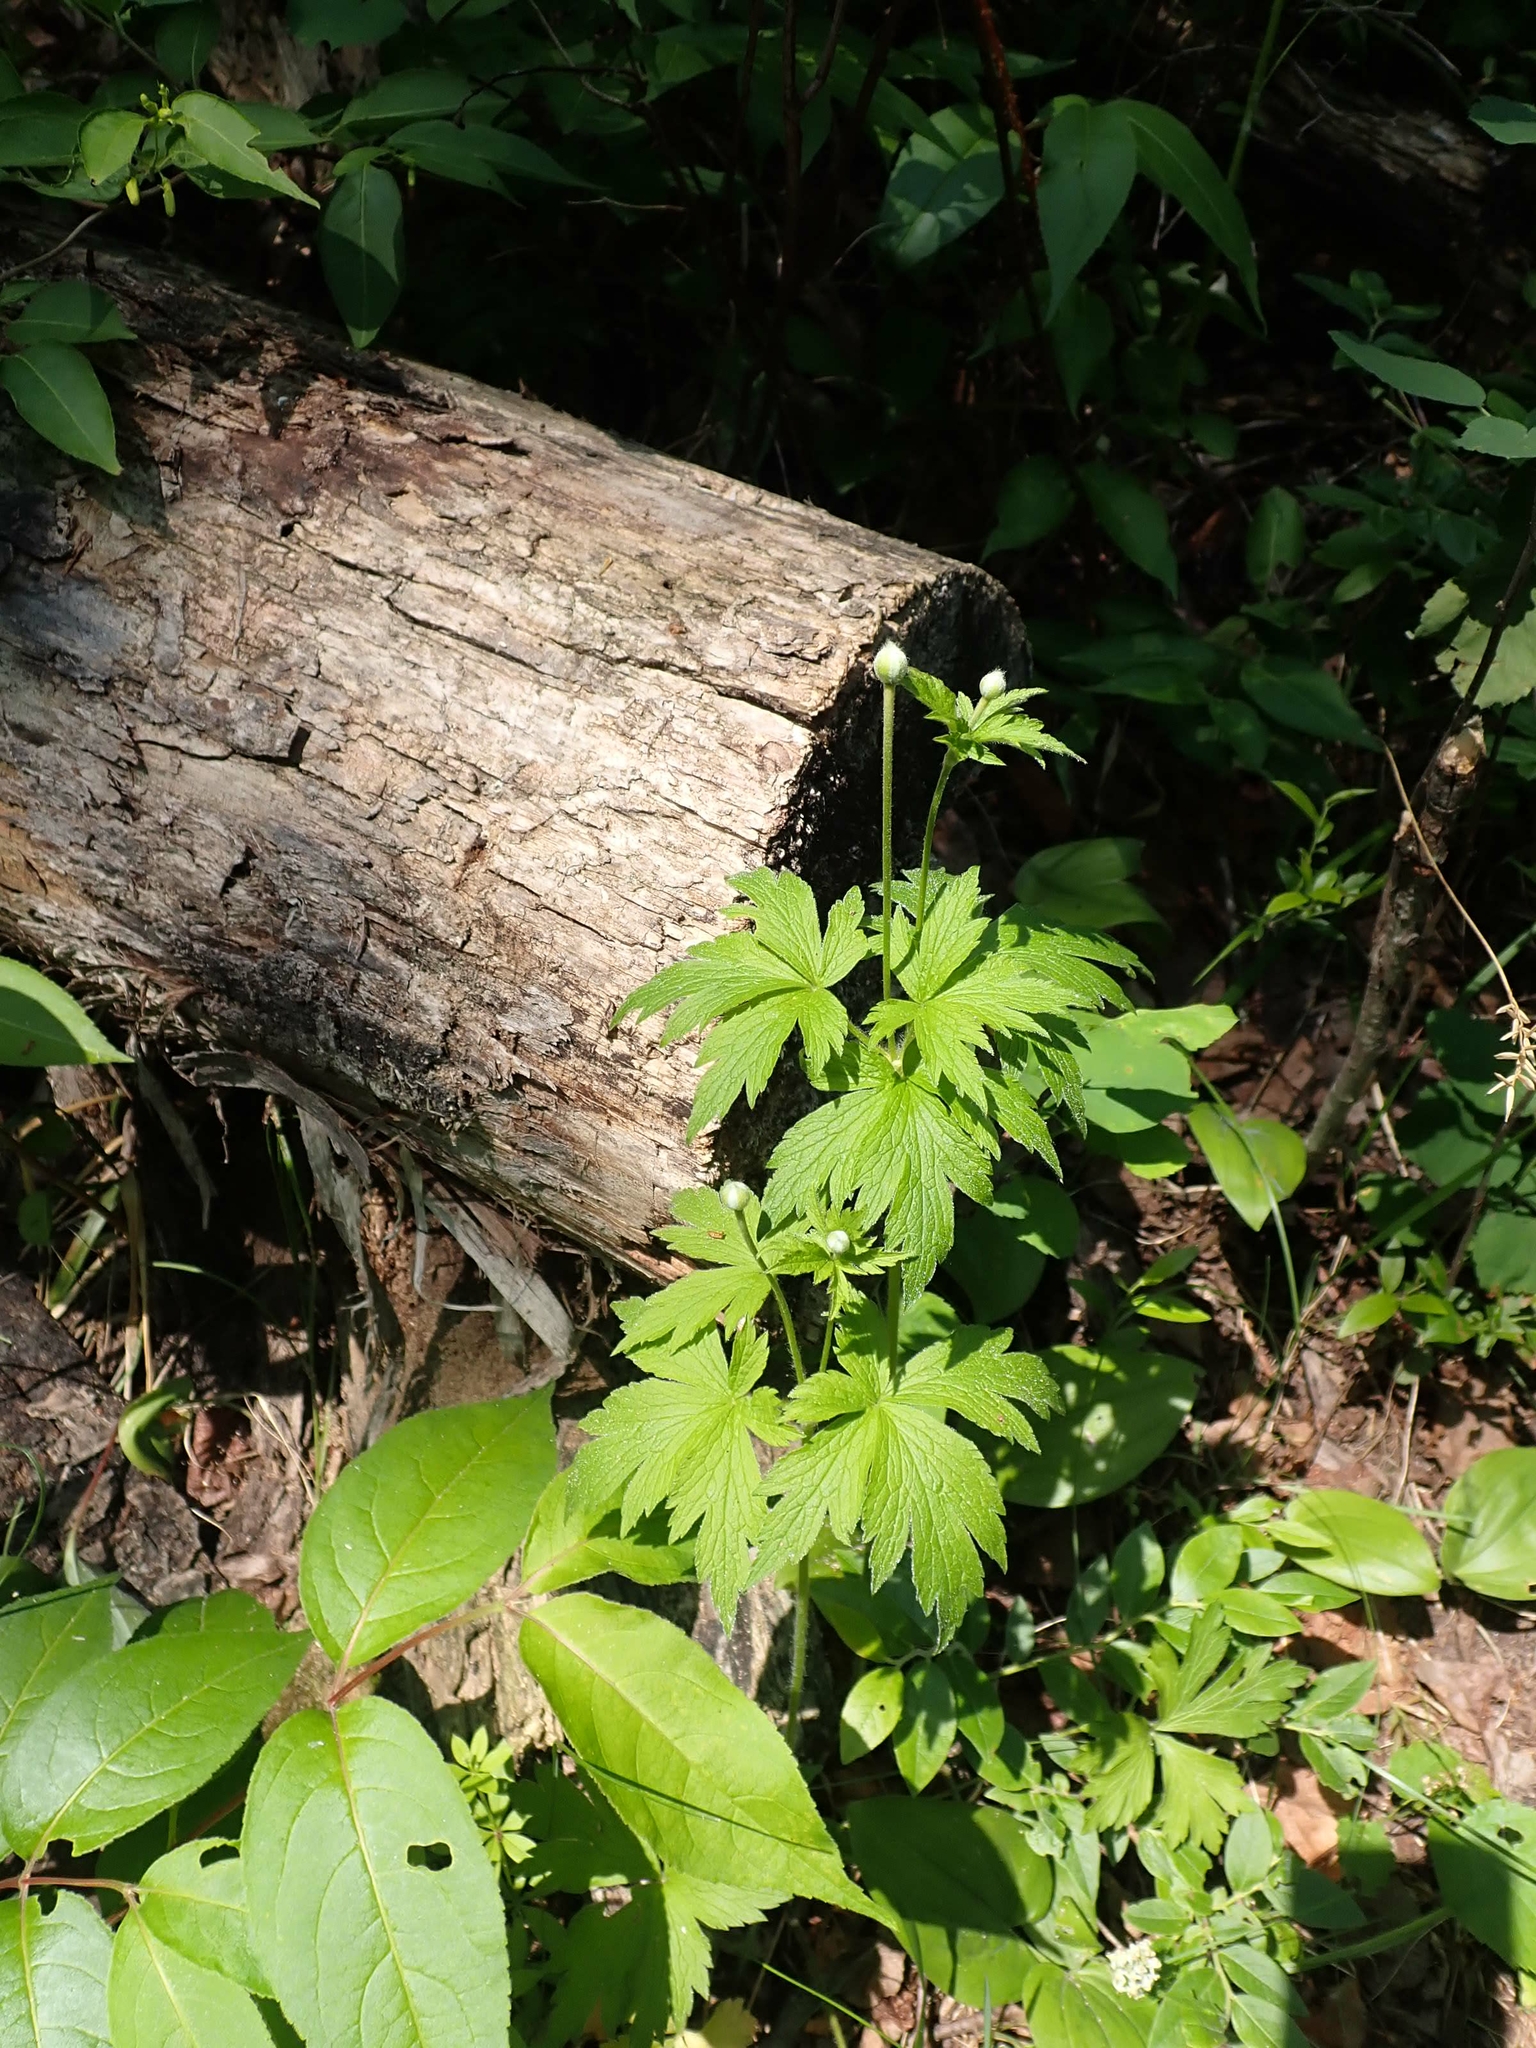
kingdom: Plantae
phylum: Tracheophyta
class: Magnoliopsida
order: Ranunculales
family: Ranunculaceae
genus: Anemone
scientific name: Anemone virginiana
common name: Tall anemone
